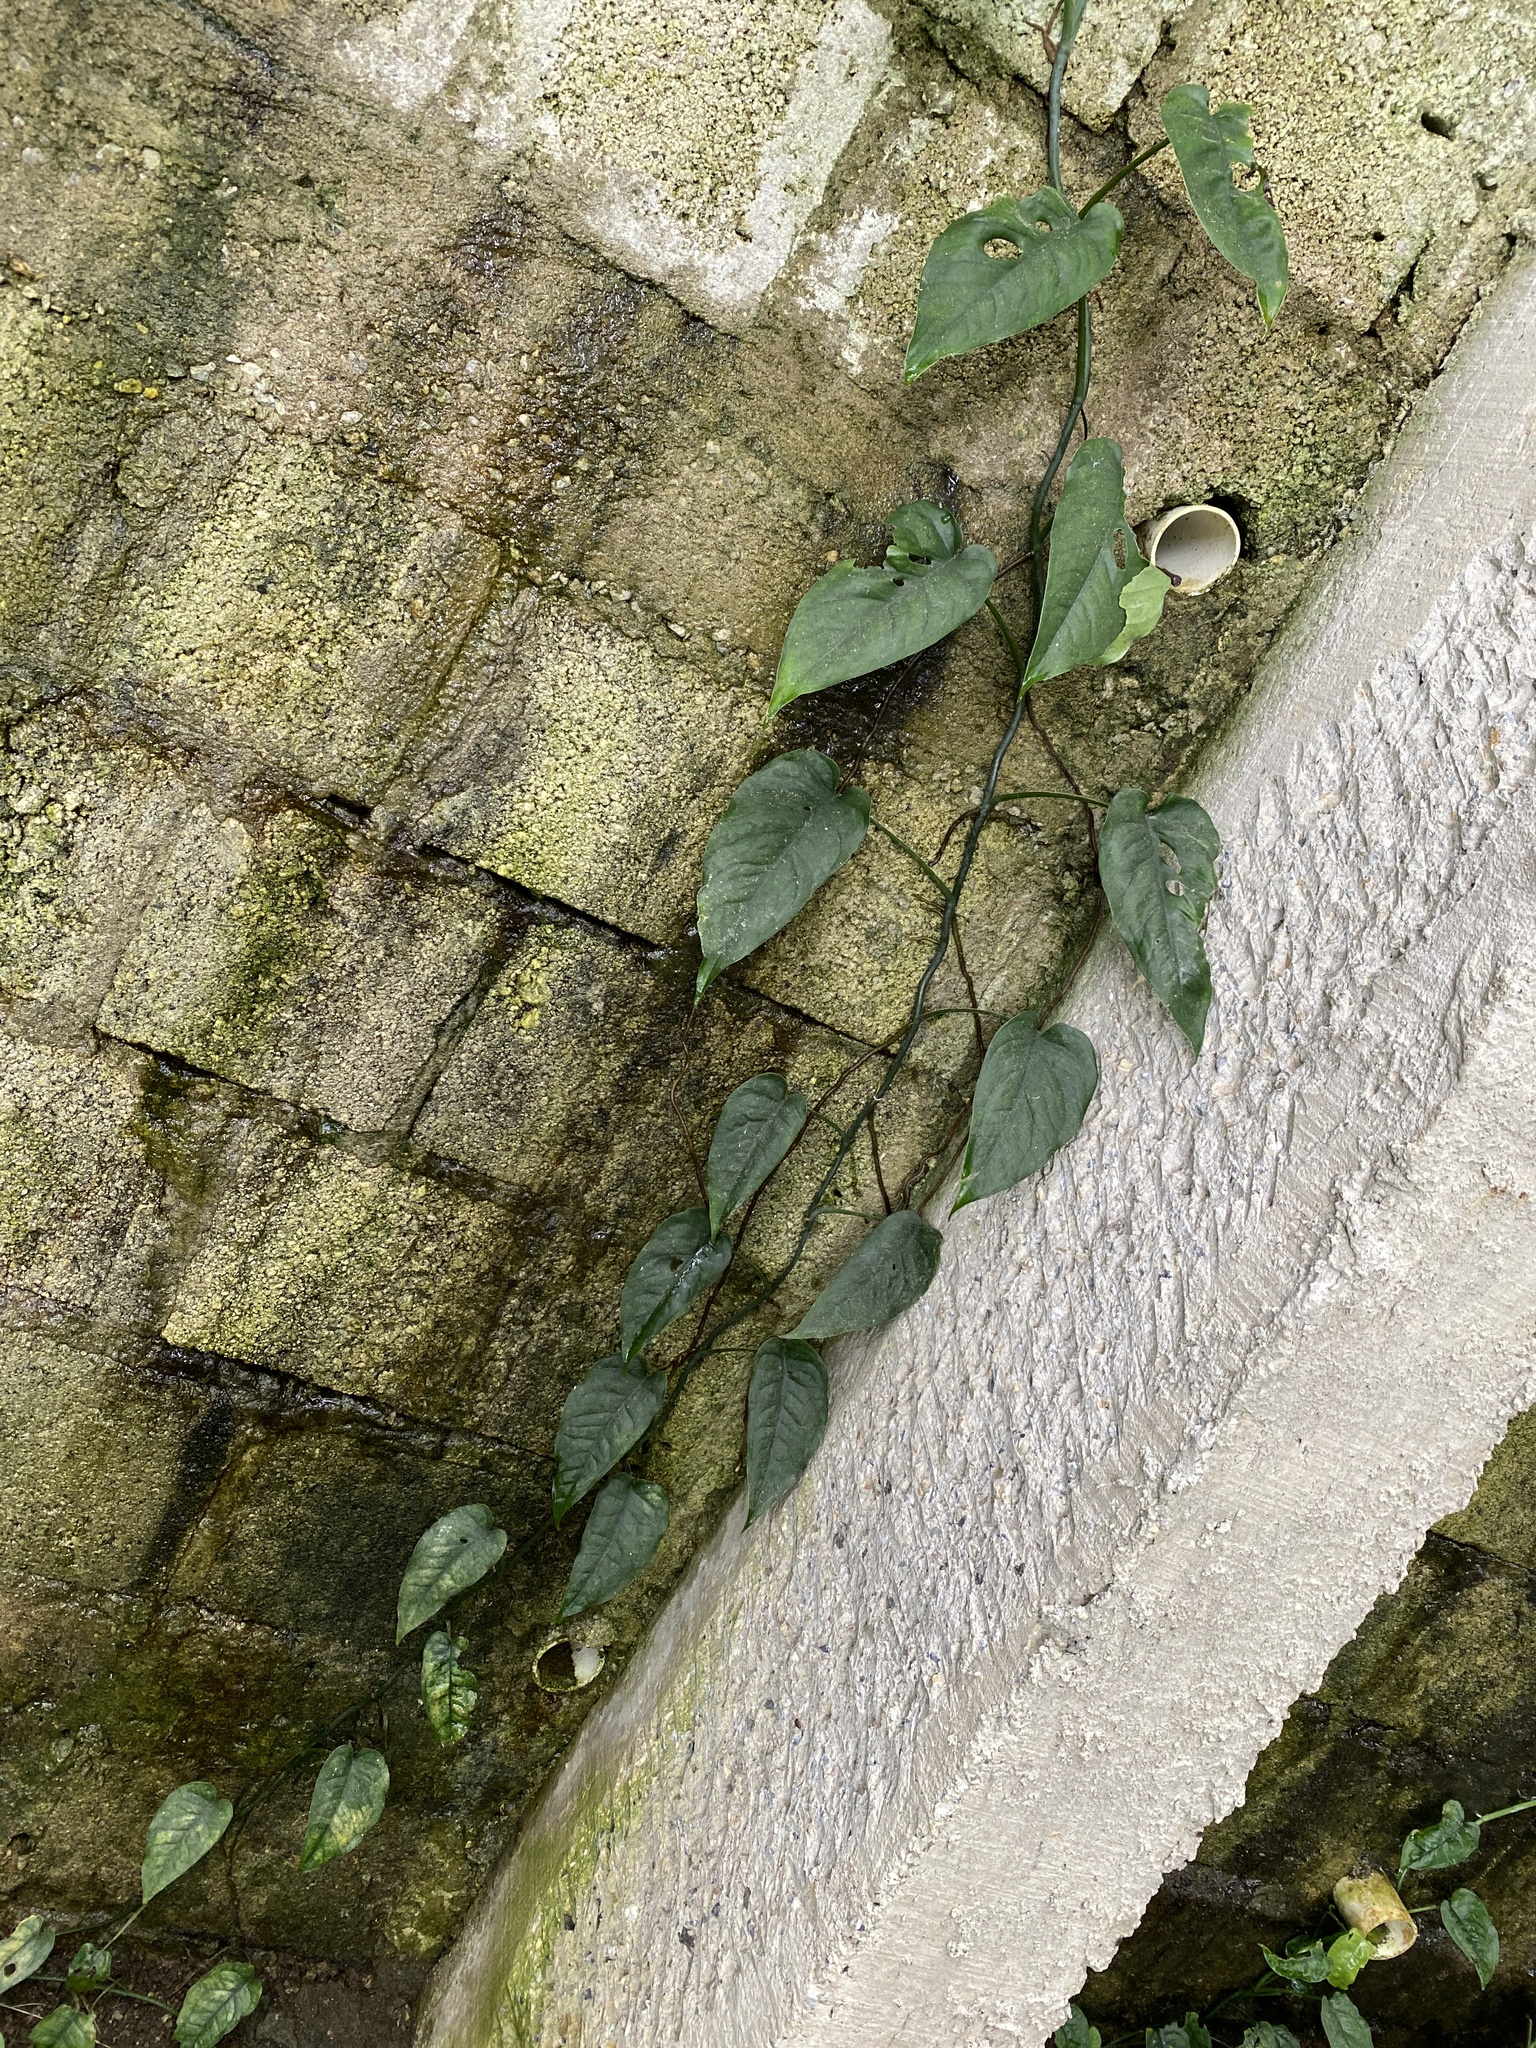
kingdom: Plantae
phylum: Tracheophyta
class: Liliopsida
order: Alismatales
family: Araceae
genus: Monstera
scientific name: Monstera siltepecana
